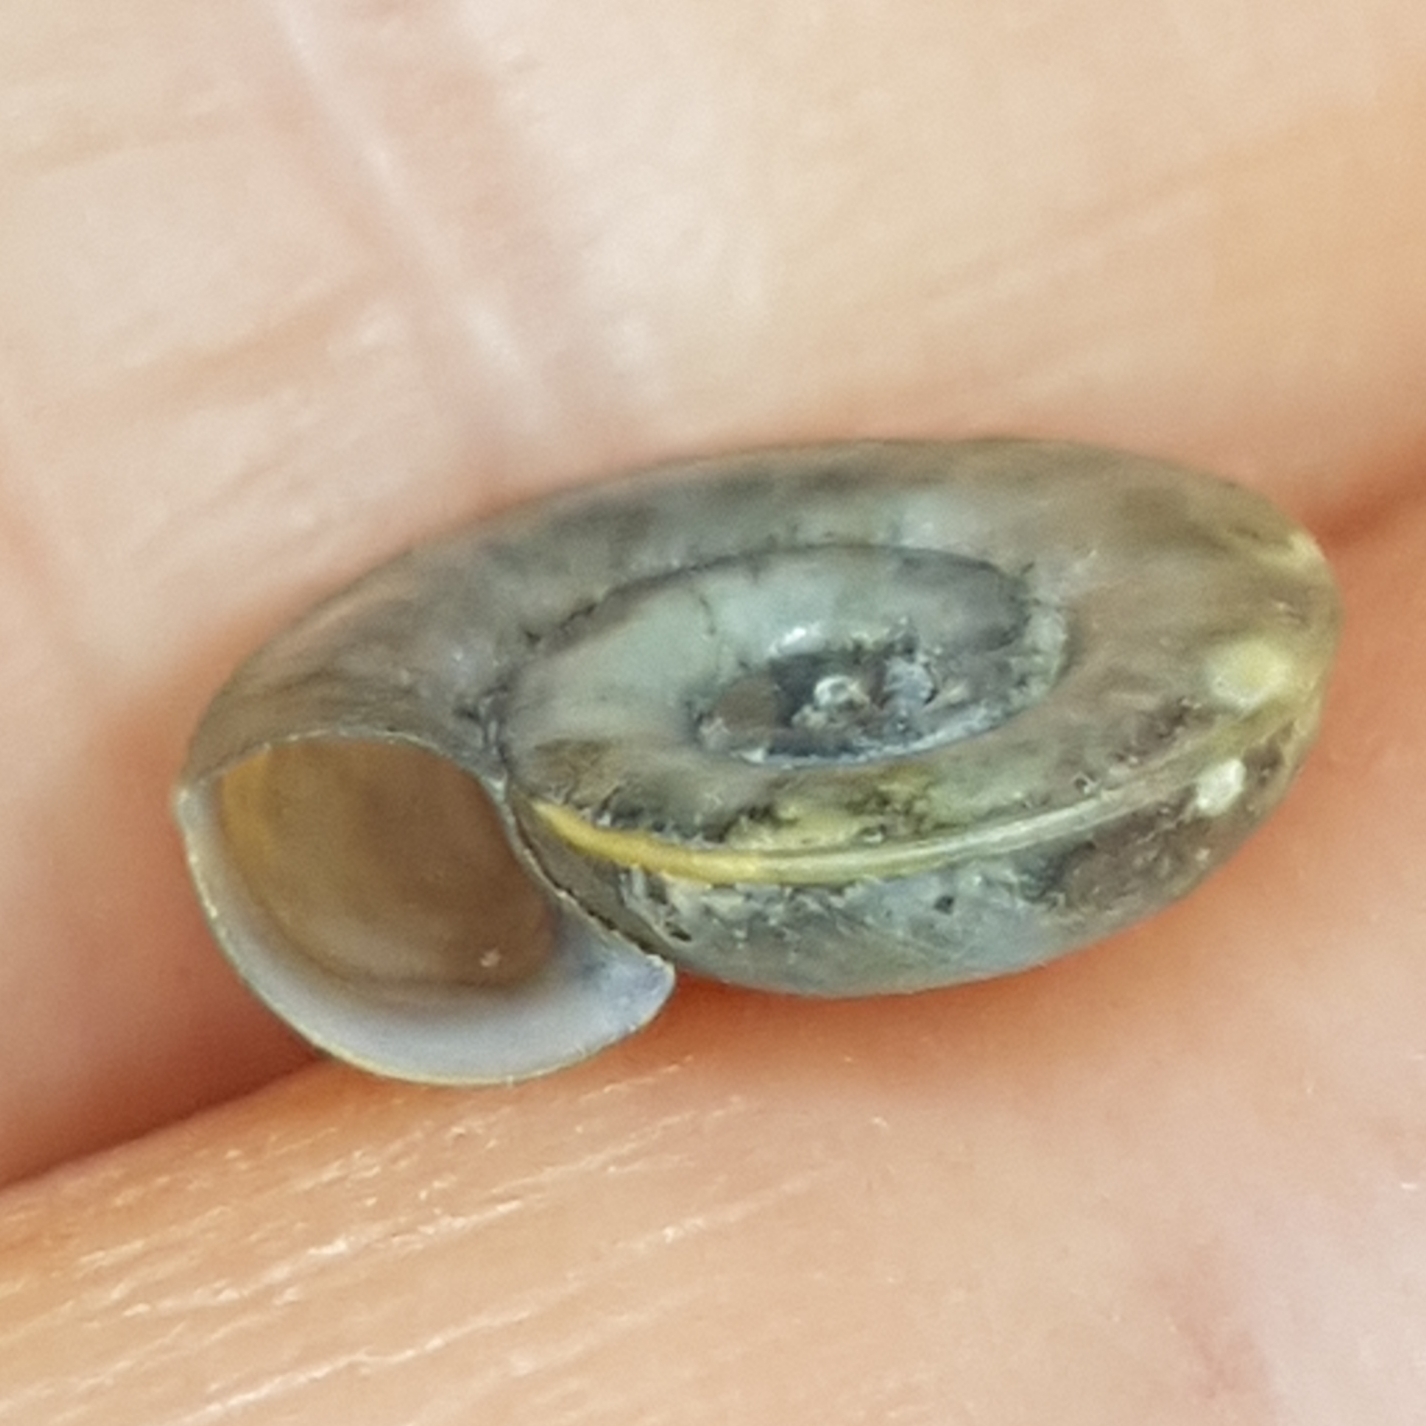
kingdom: Animalia
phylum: Mollusca
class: Gastropoda
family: Planorbidae
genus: Planorbis
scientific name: Planorbis planorbis
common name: Margined ramshorn
